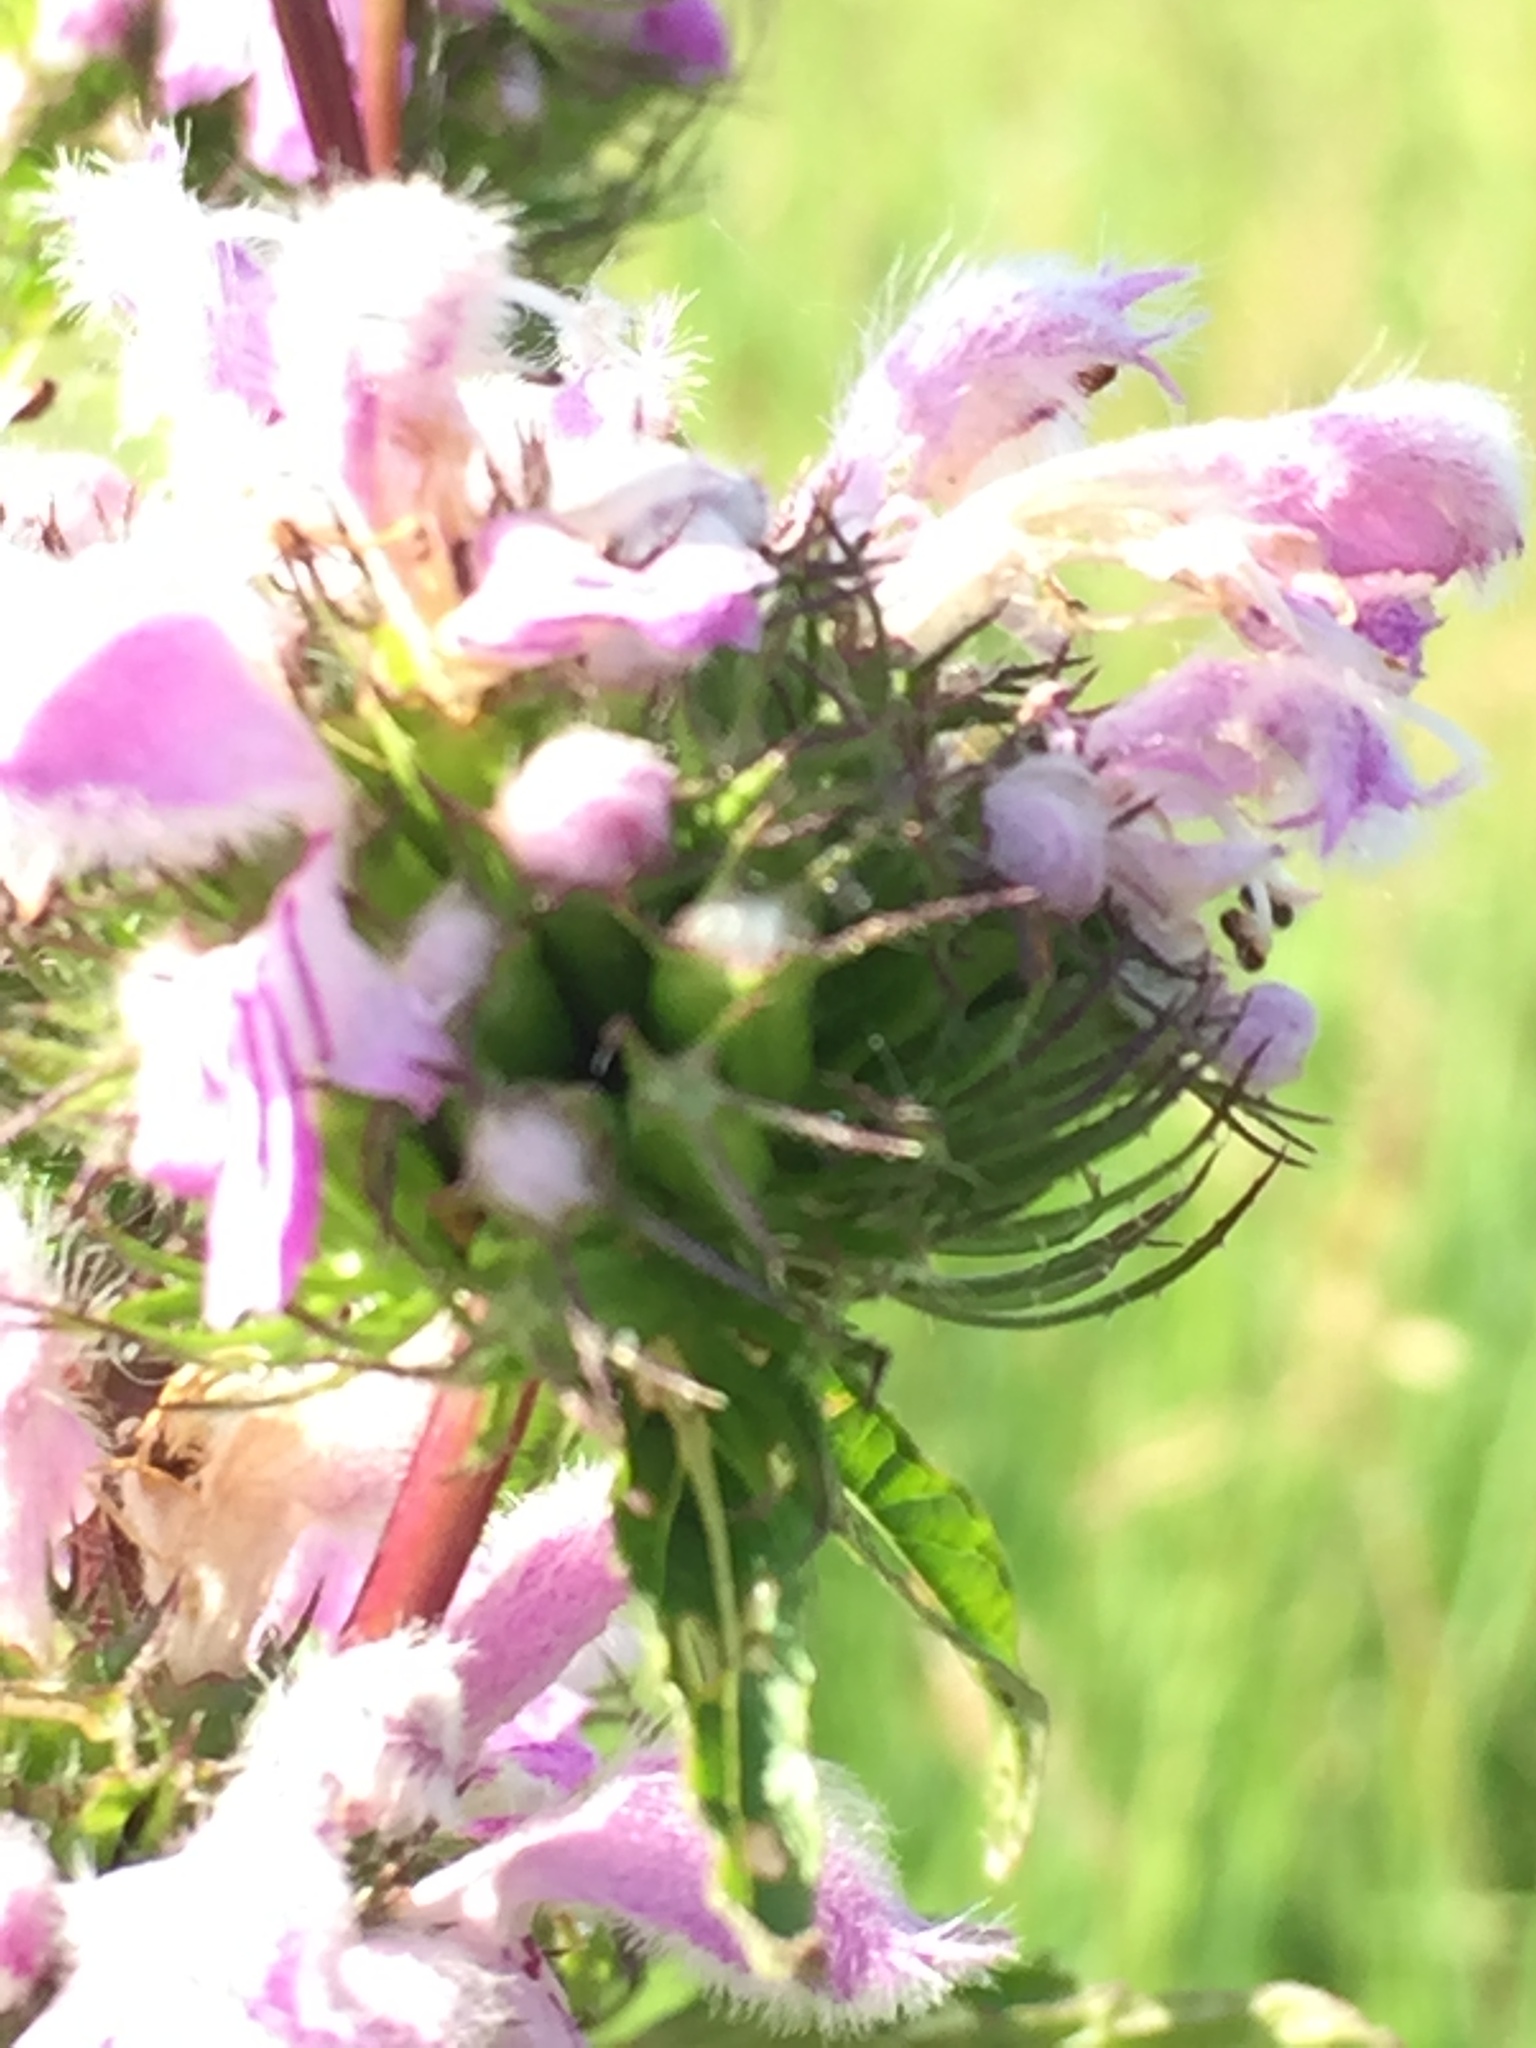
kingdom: Plantae
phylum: Tracheophyta
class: Magnoliopsida
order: Lamiales
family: Lamiaceae
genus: Phlomoides
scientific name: Phlomoides tuberosa
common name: Tuberous jerusalem sage
